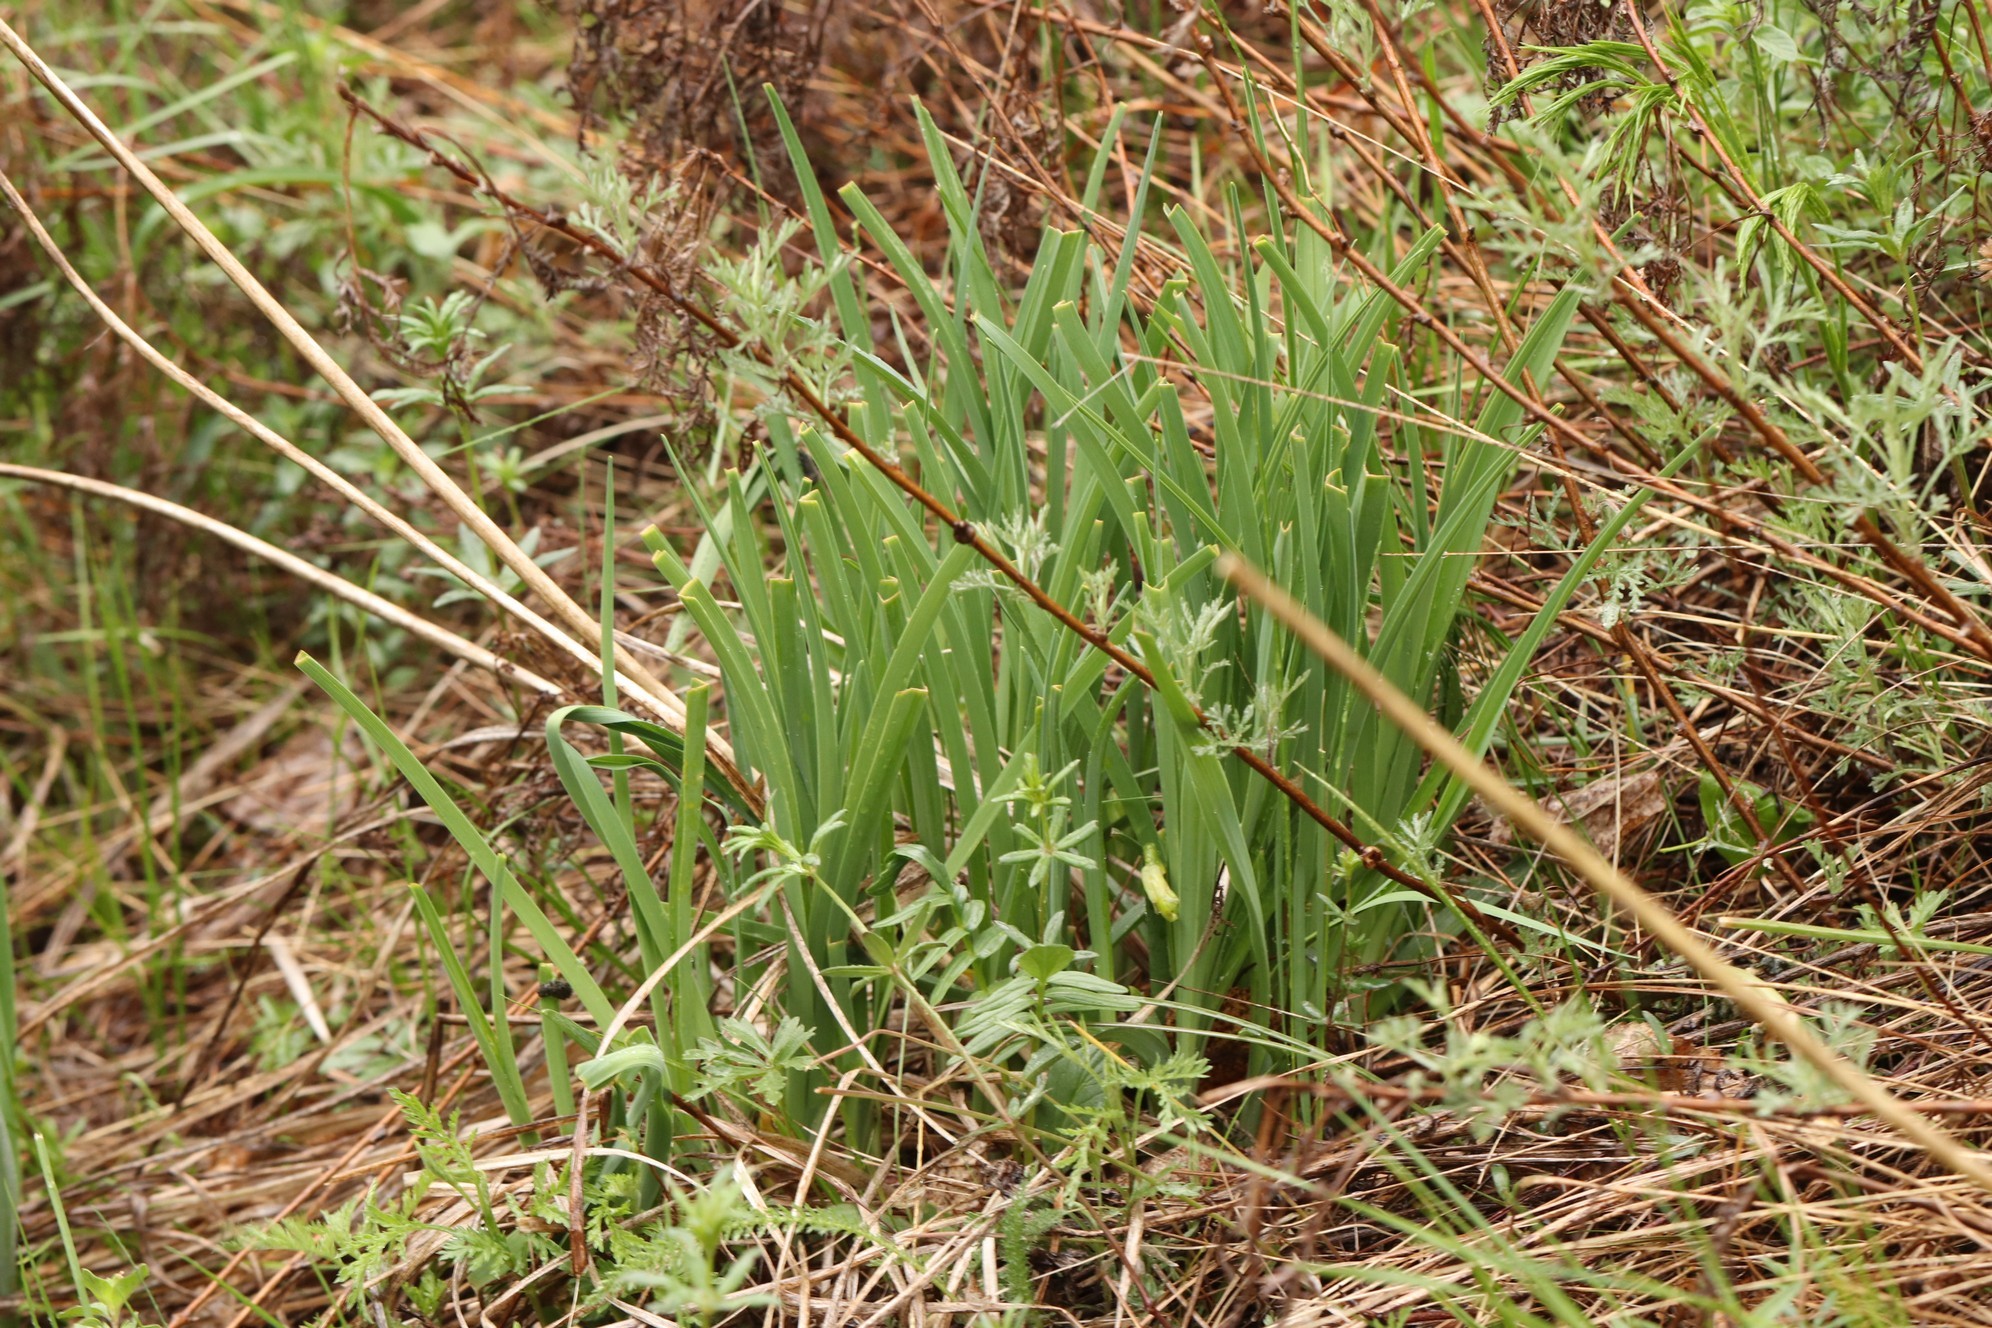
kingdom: Plantae
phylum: Tracheophyta
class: Liliopsida
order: Asparagales
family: Asphodelaceae
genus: Hemerocallis
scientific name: Hemerocallis minor
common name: Small daylily
